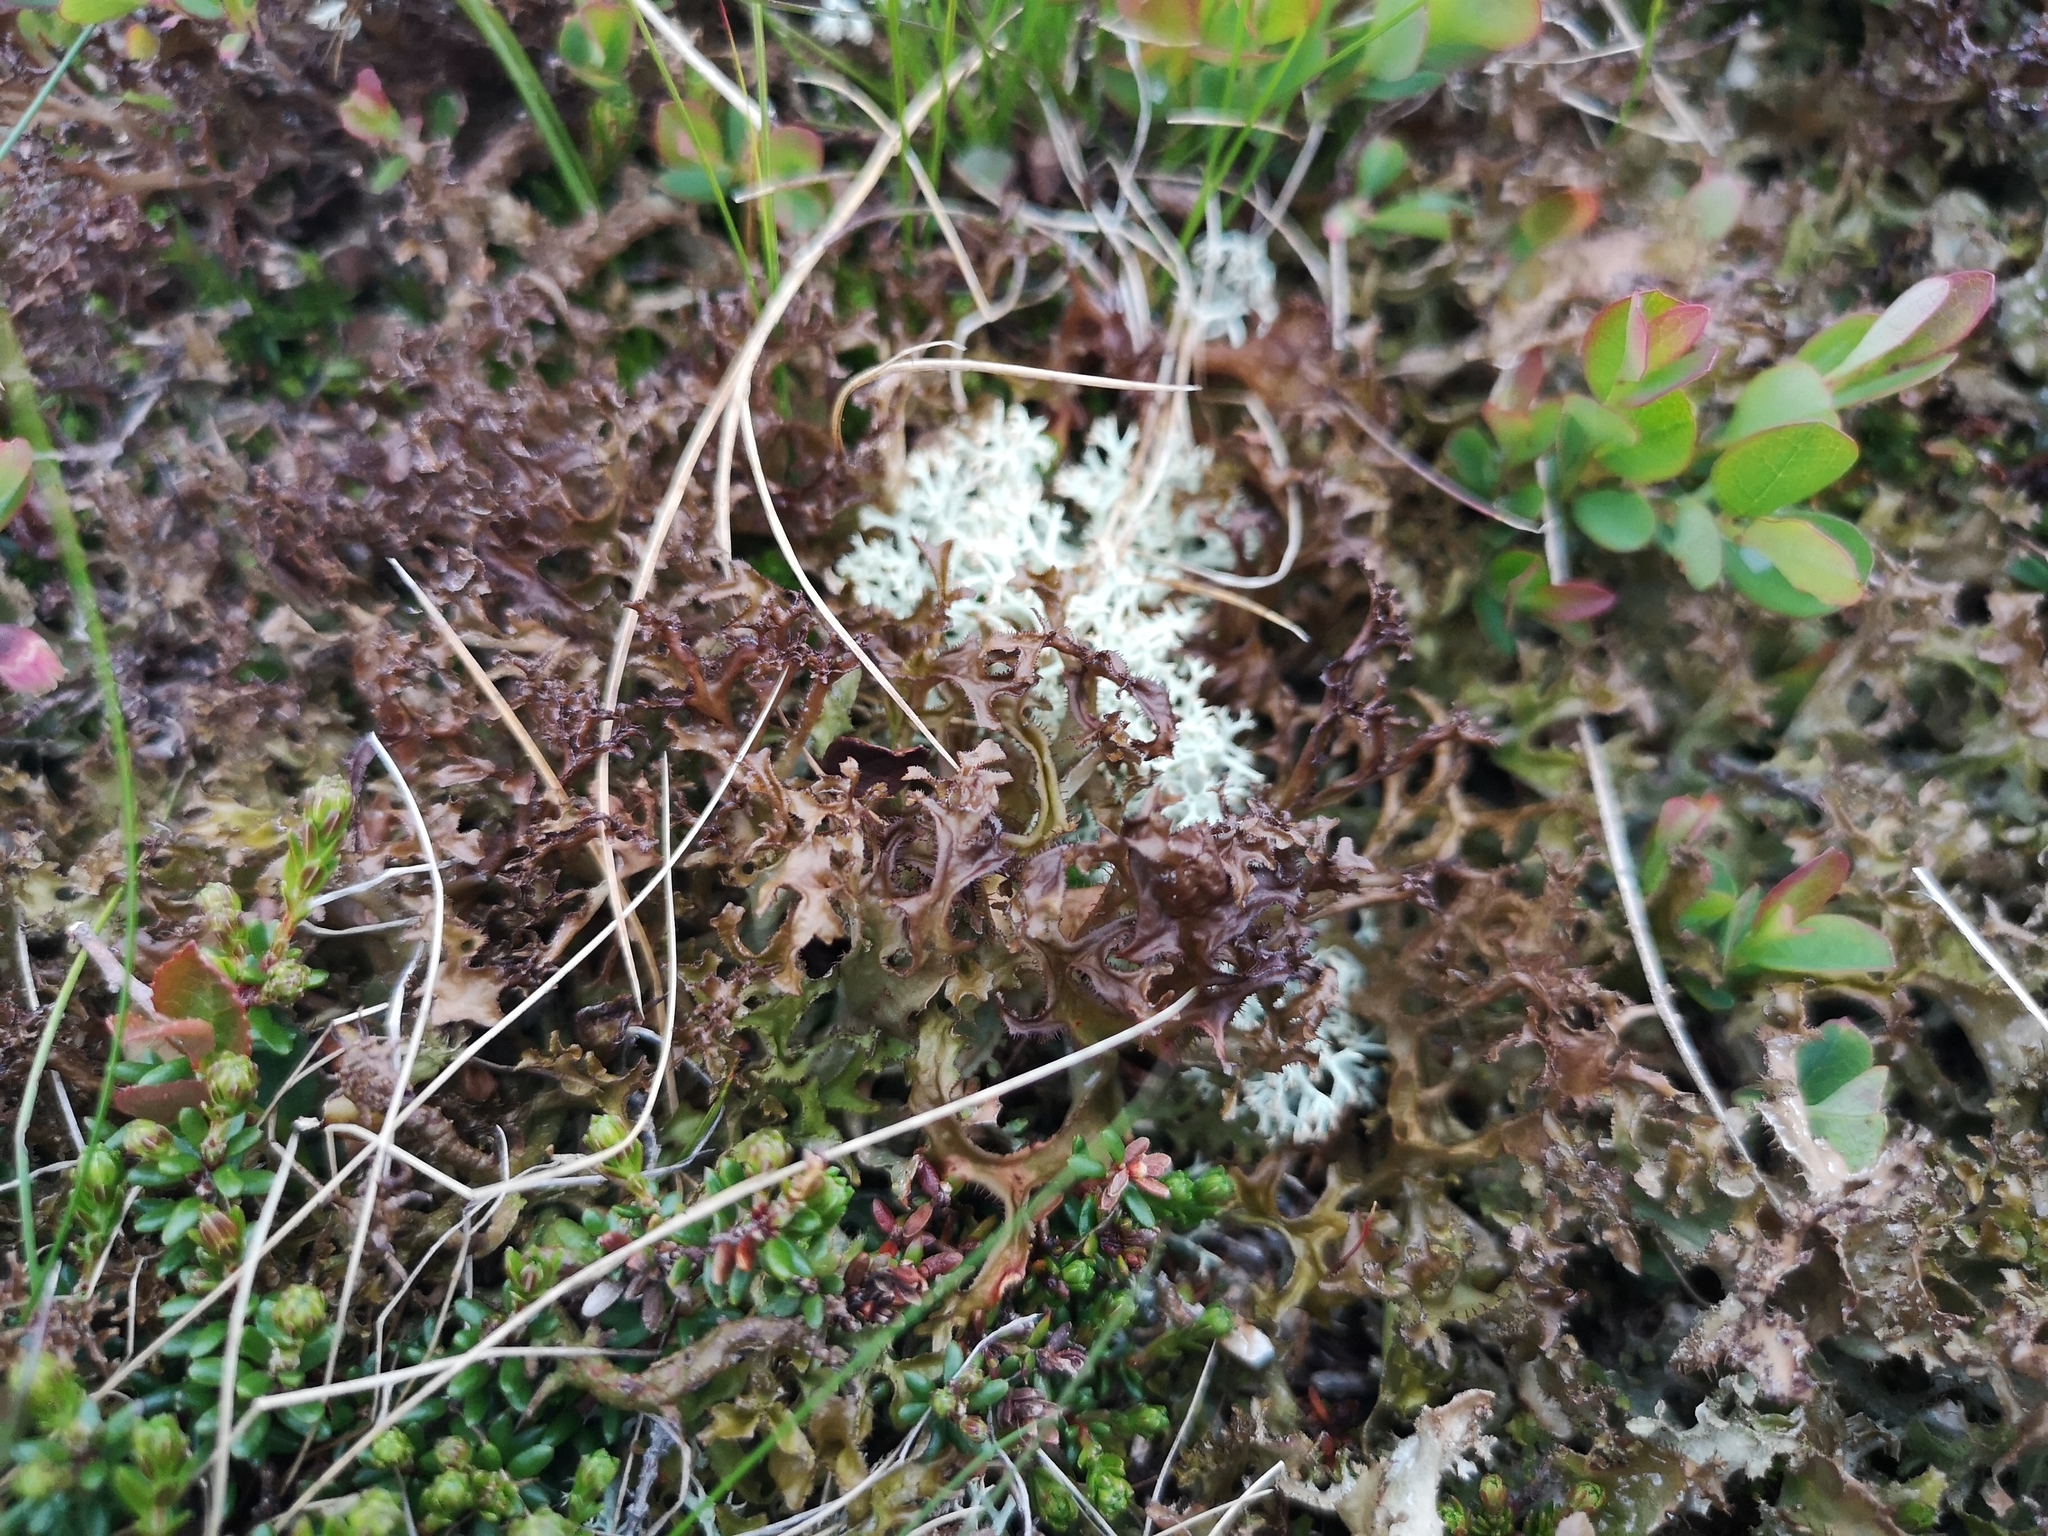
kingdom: Fungi
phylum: Ascomycota
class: Lecanoromycetes
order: Lecanorales
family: Parmeliaceae
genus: Cetraria
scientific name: Cetraria islandica
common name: Iceland lichen
